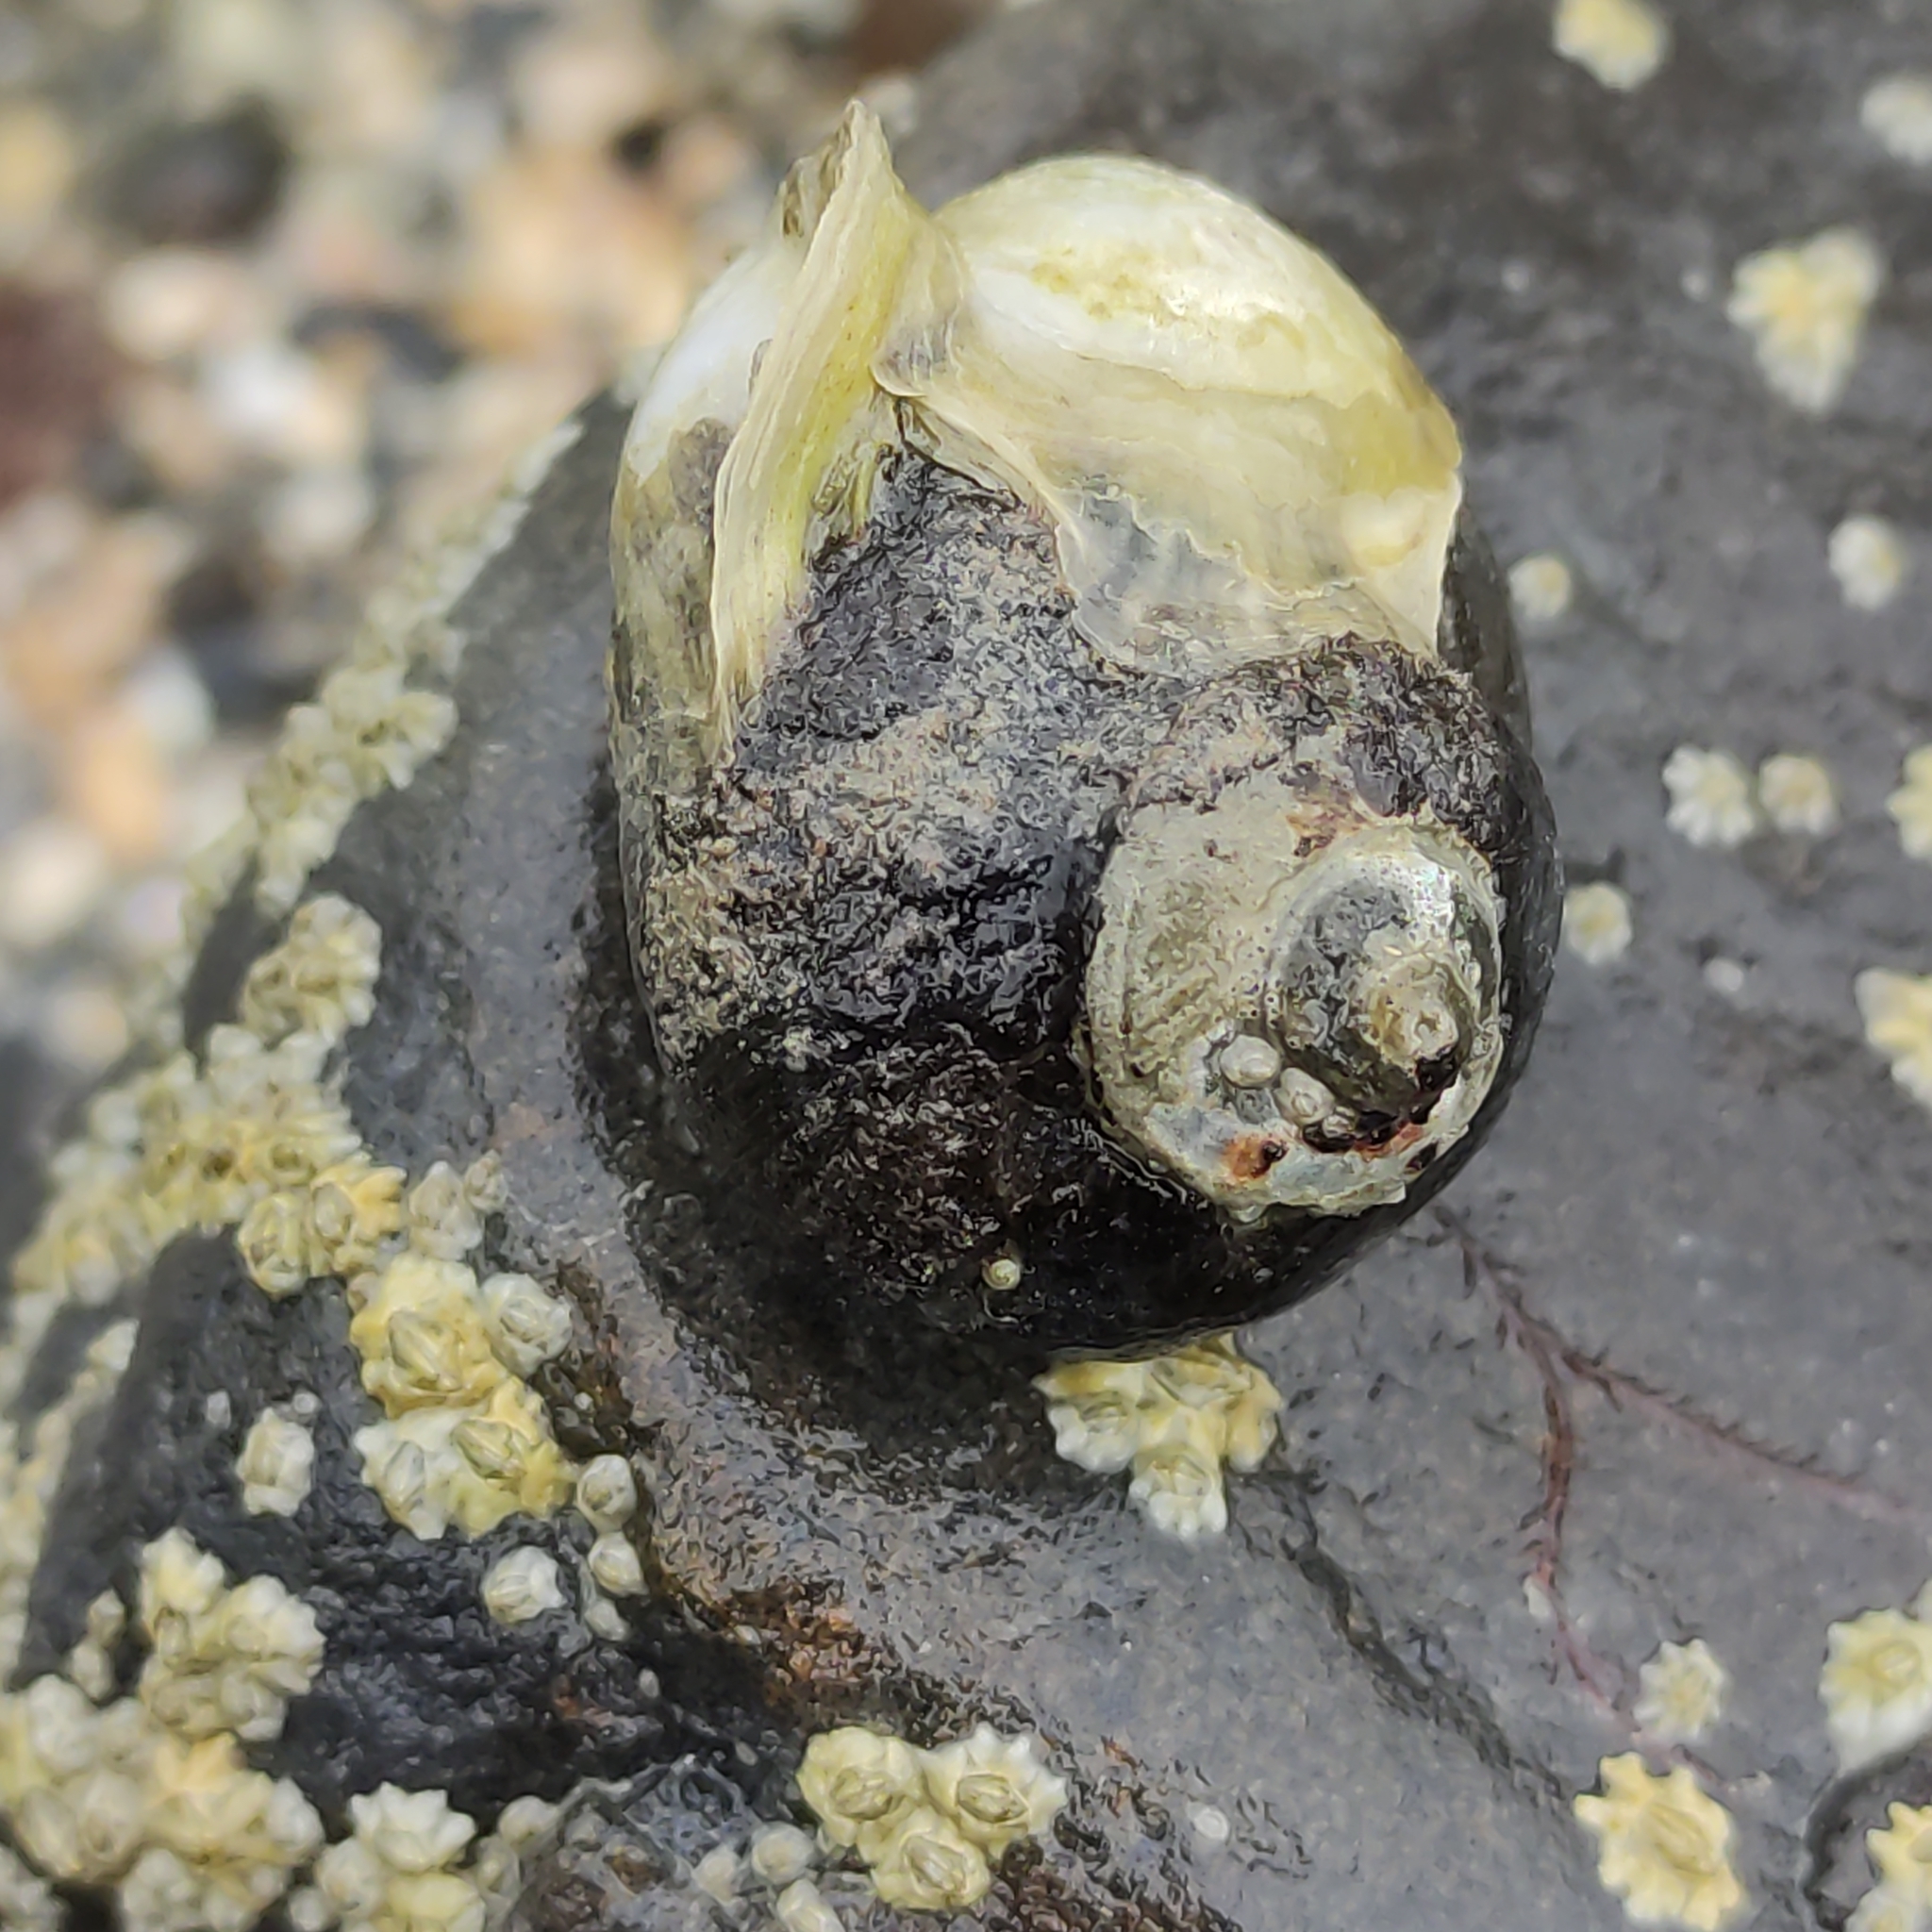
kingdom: Animalia
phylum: Mollusca
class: Gastropoda
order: Trochida
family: Turbinidae
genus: Lunella
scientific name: Lunella smaragda
